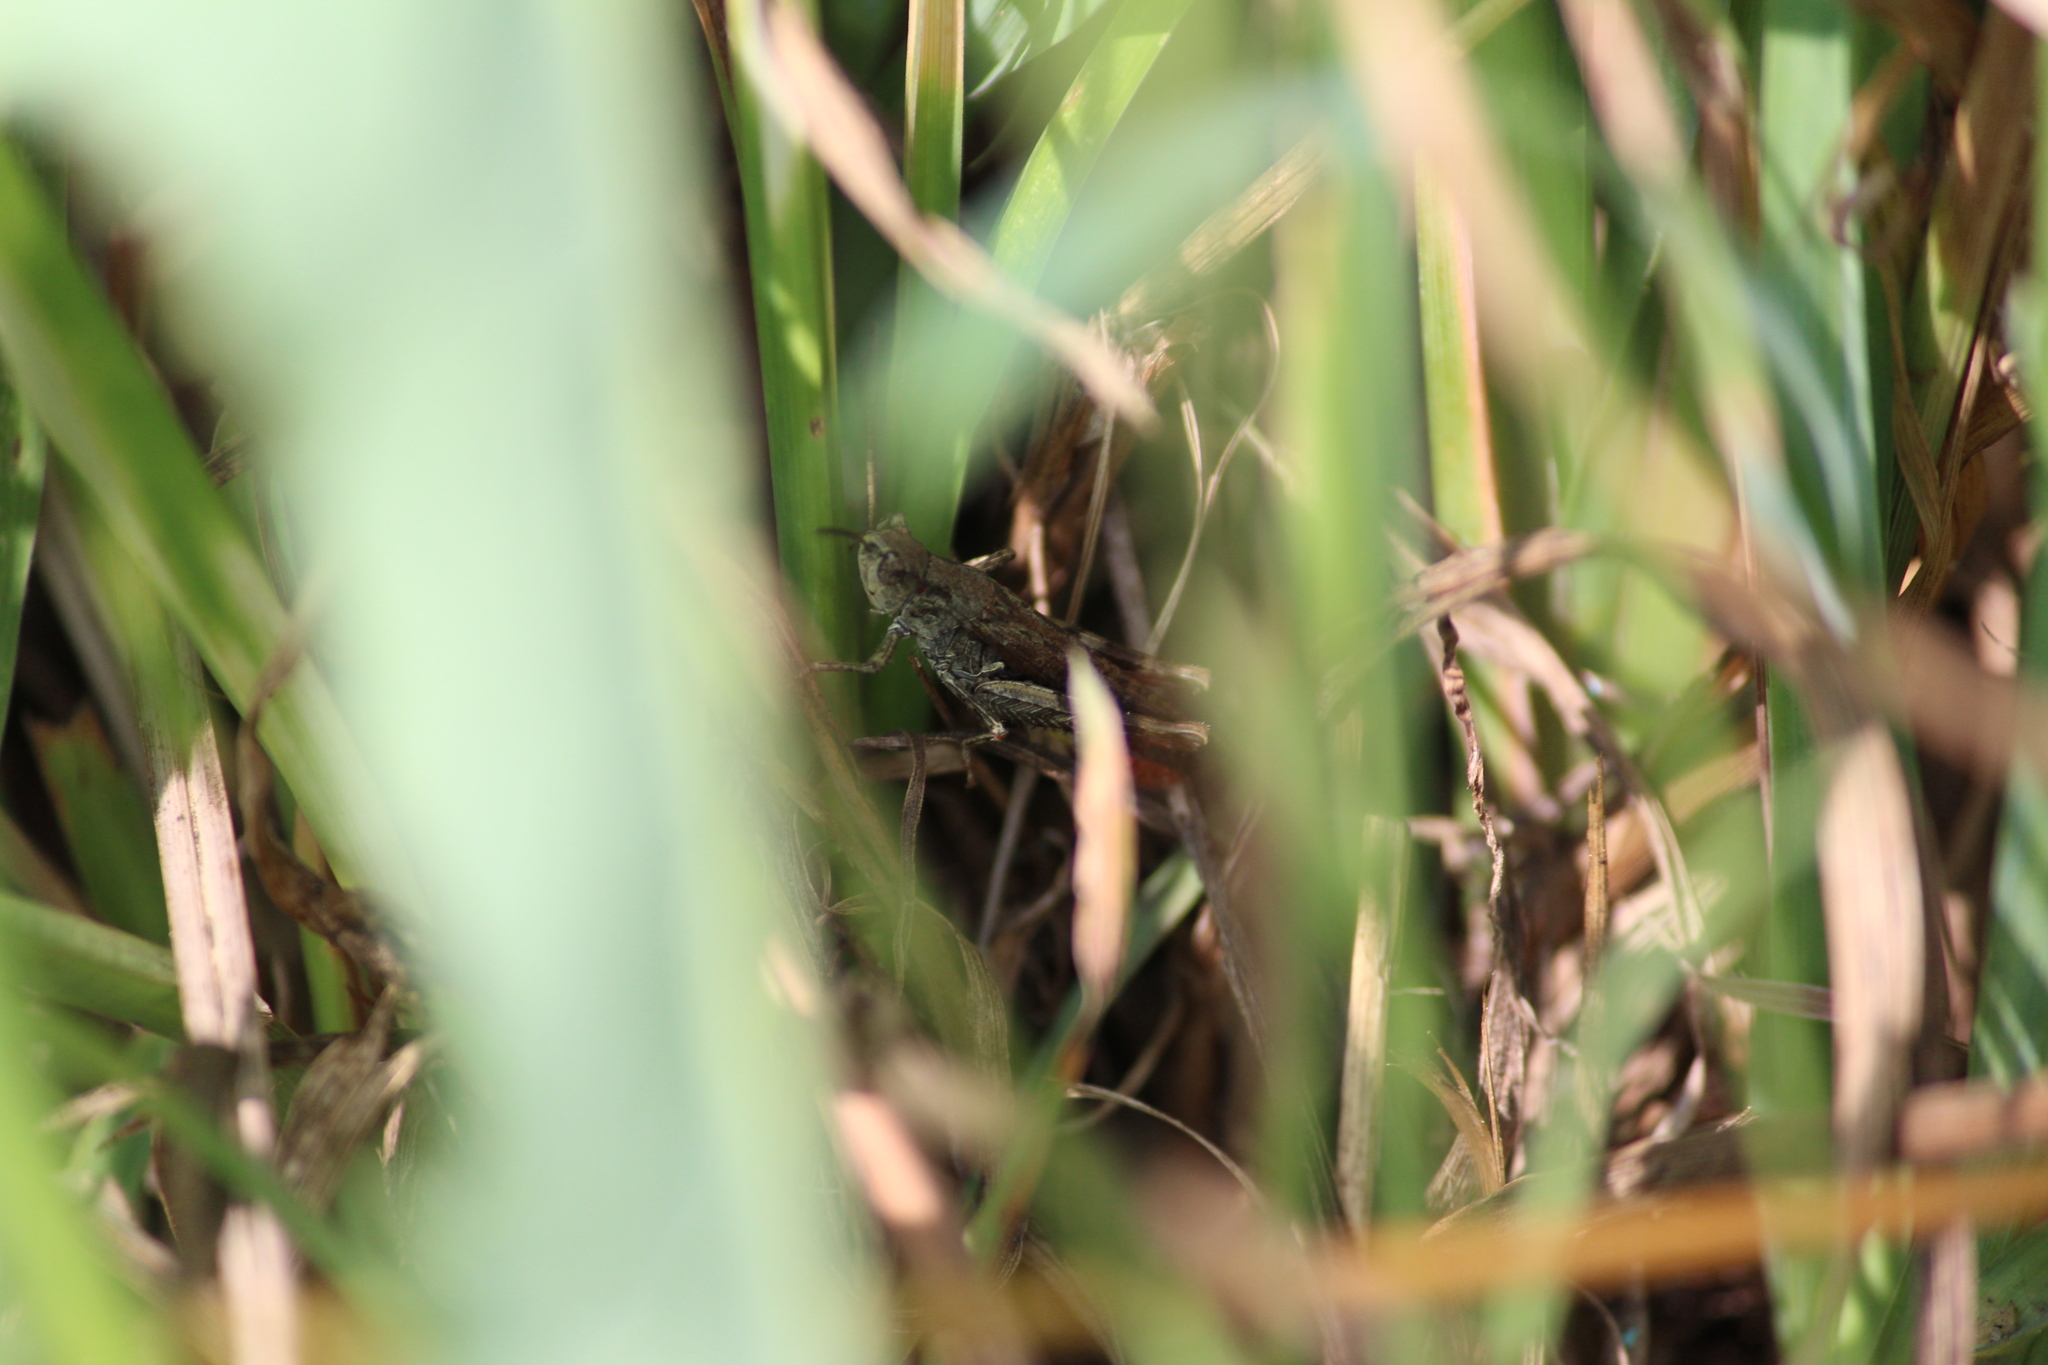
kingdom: Animalia
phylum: Arthropoda
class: Insecta
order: Orthoptera
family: Acrididae
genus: Glyptobothrus
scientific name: Glyptobothrus
